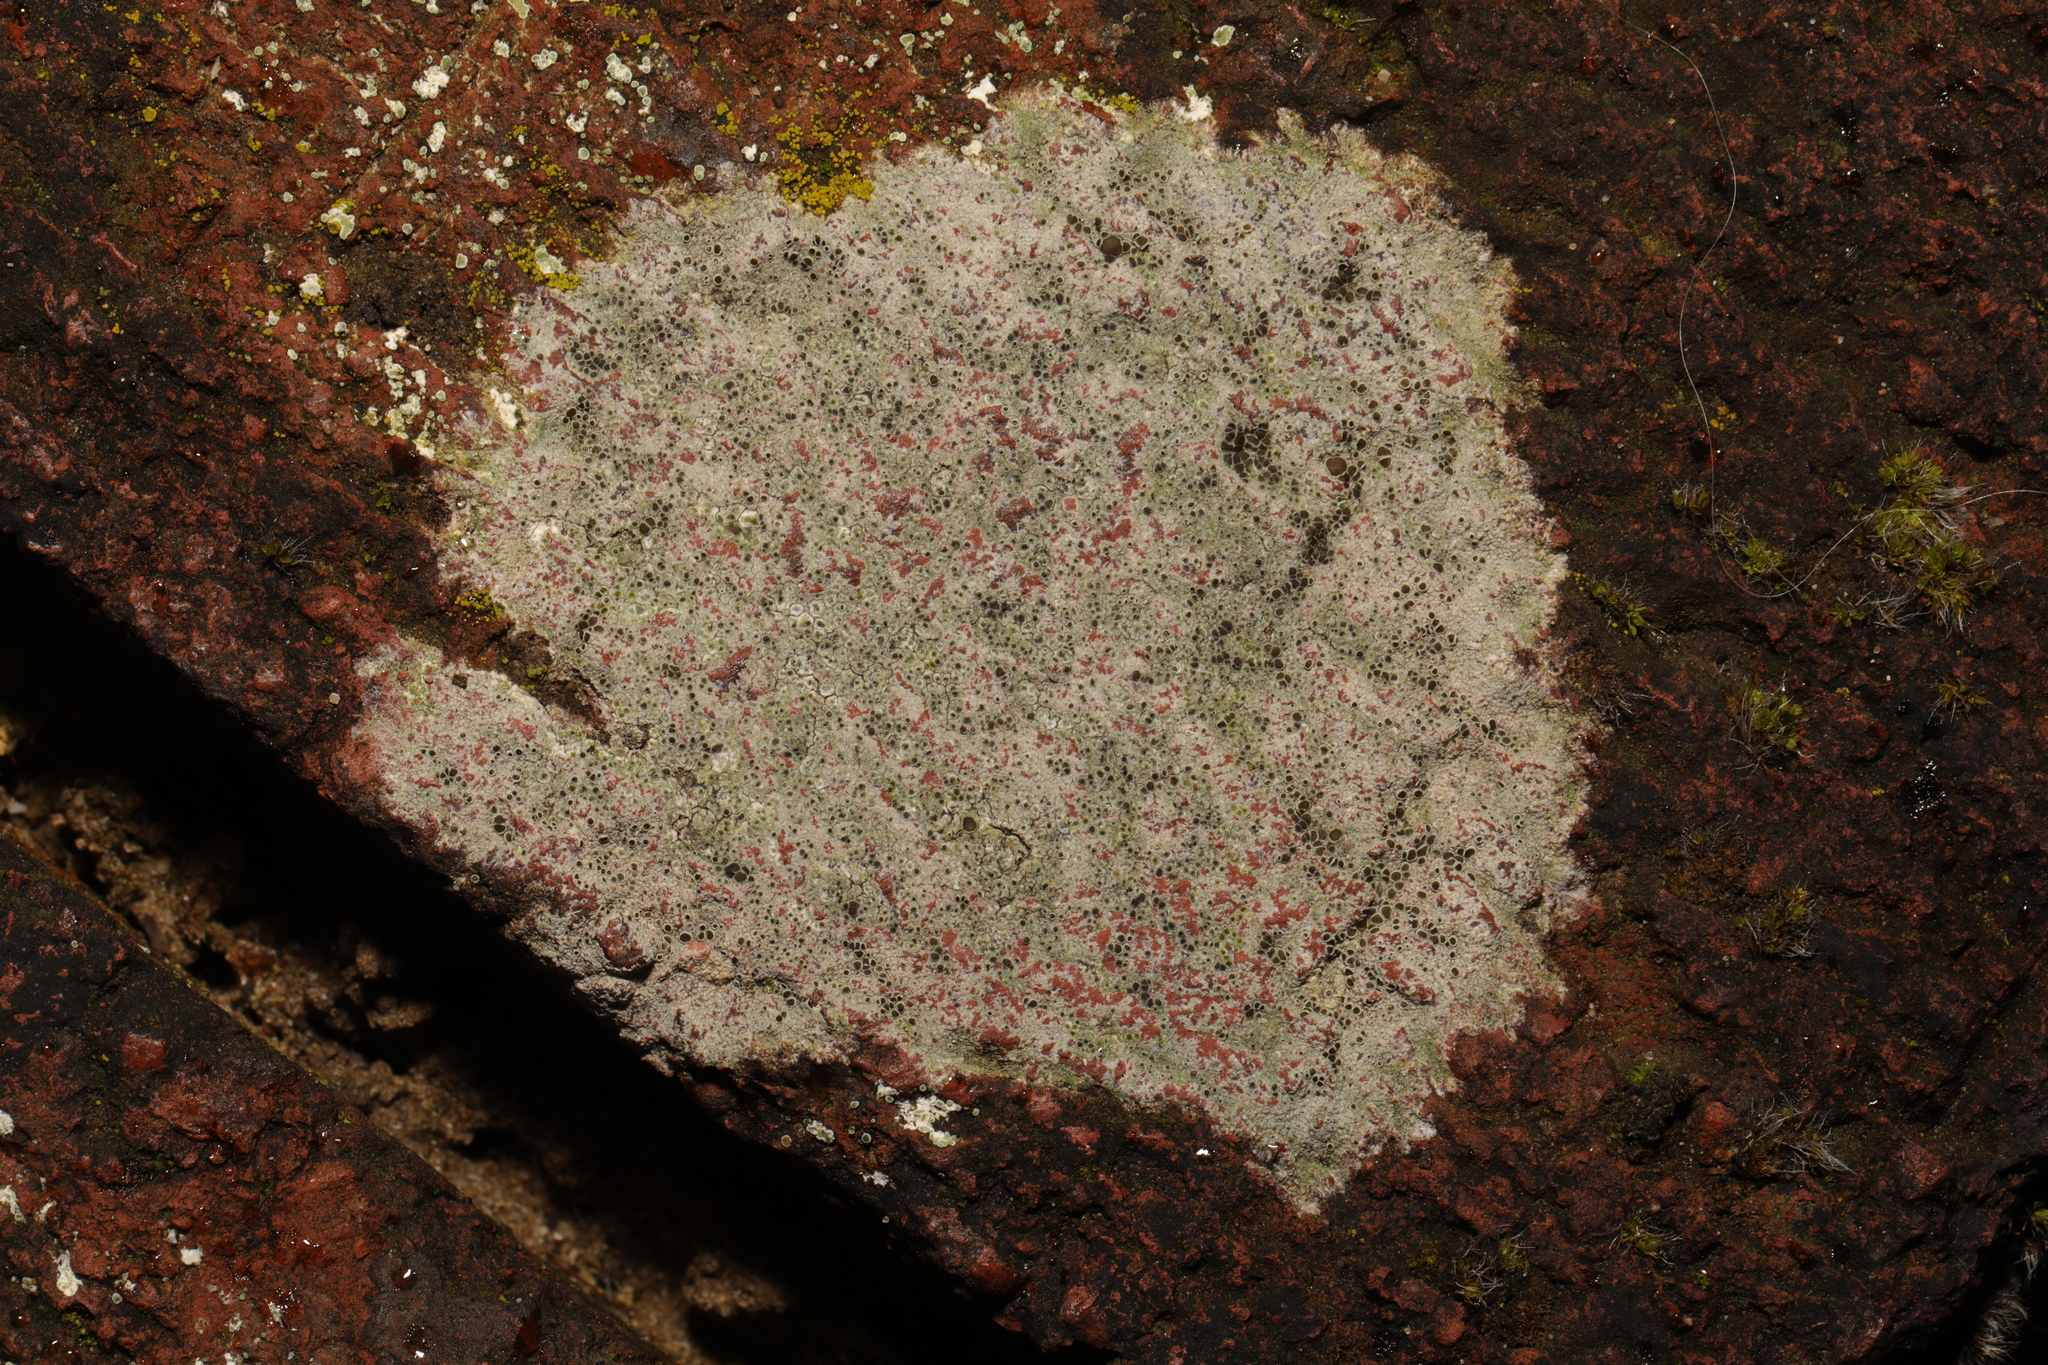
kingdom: Fungi
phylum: Ascomycota
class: Lecanoromycetes
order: Lecanorales
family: Lecanoraceae
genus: Lecanora
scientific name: Lecanora campestris
